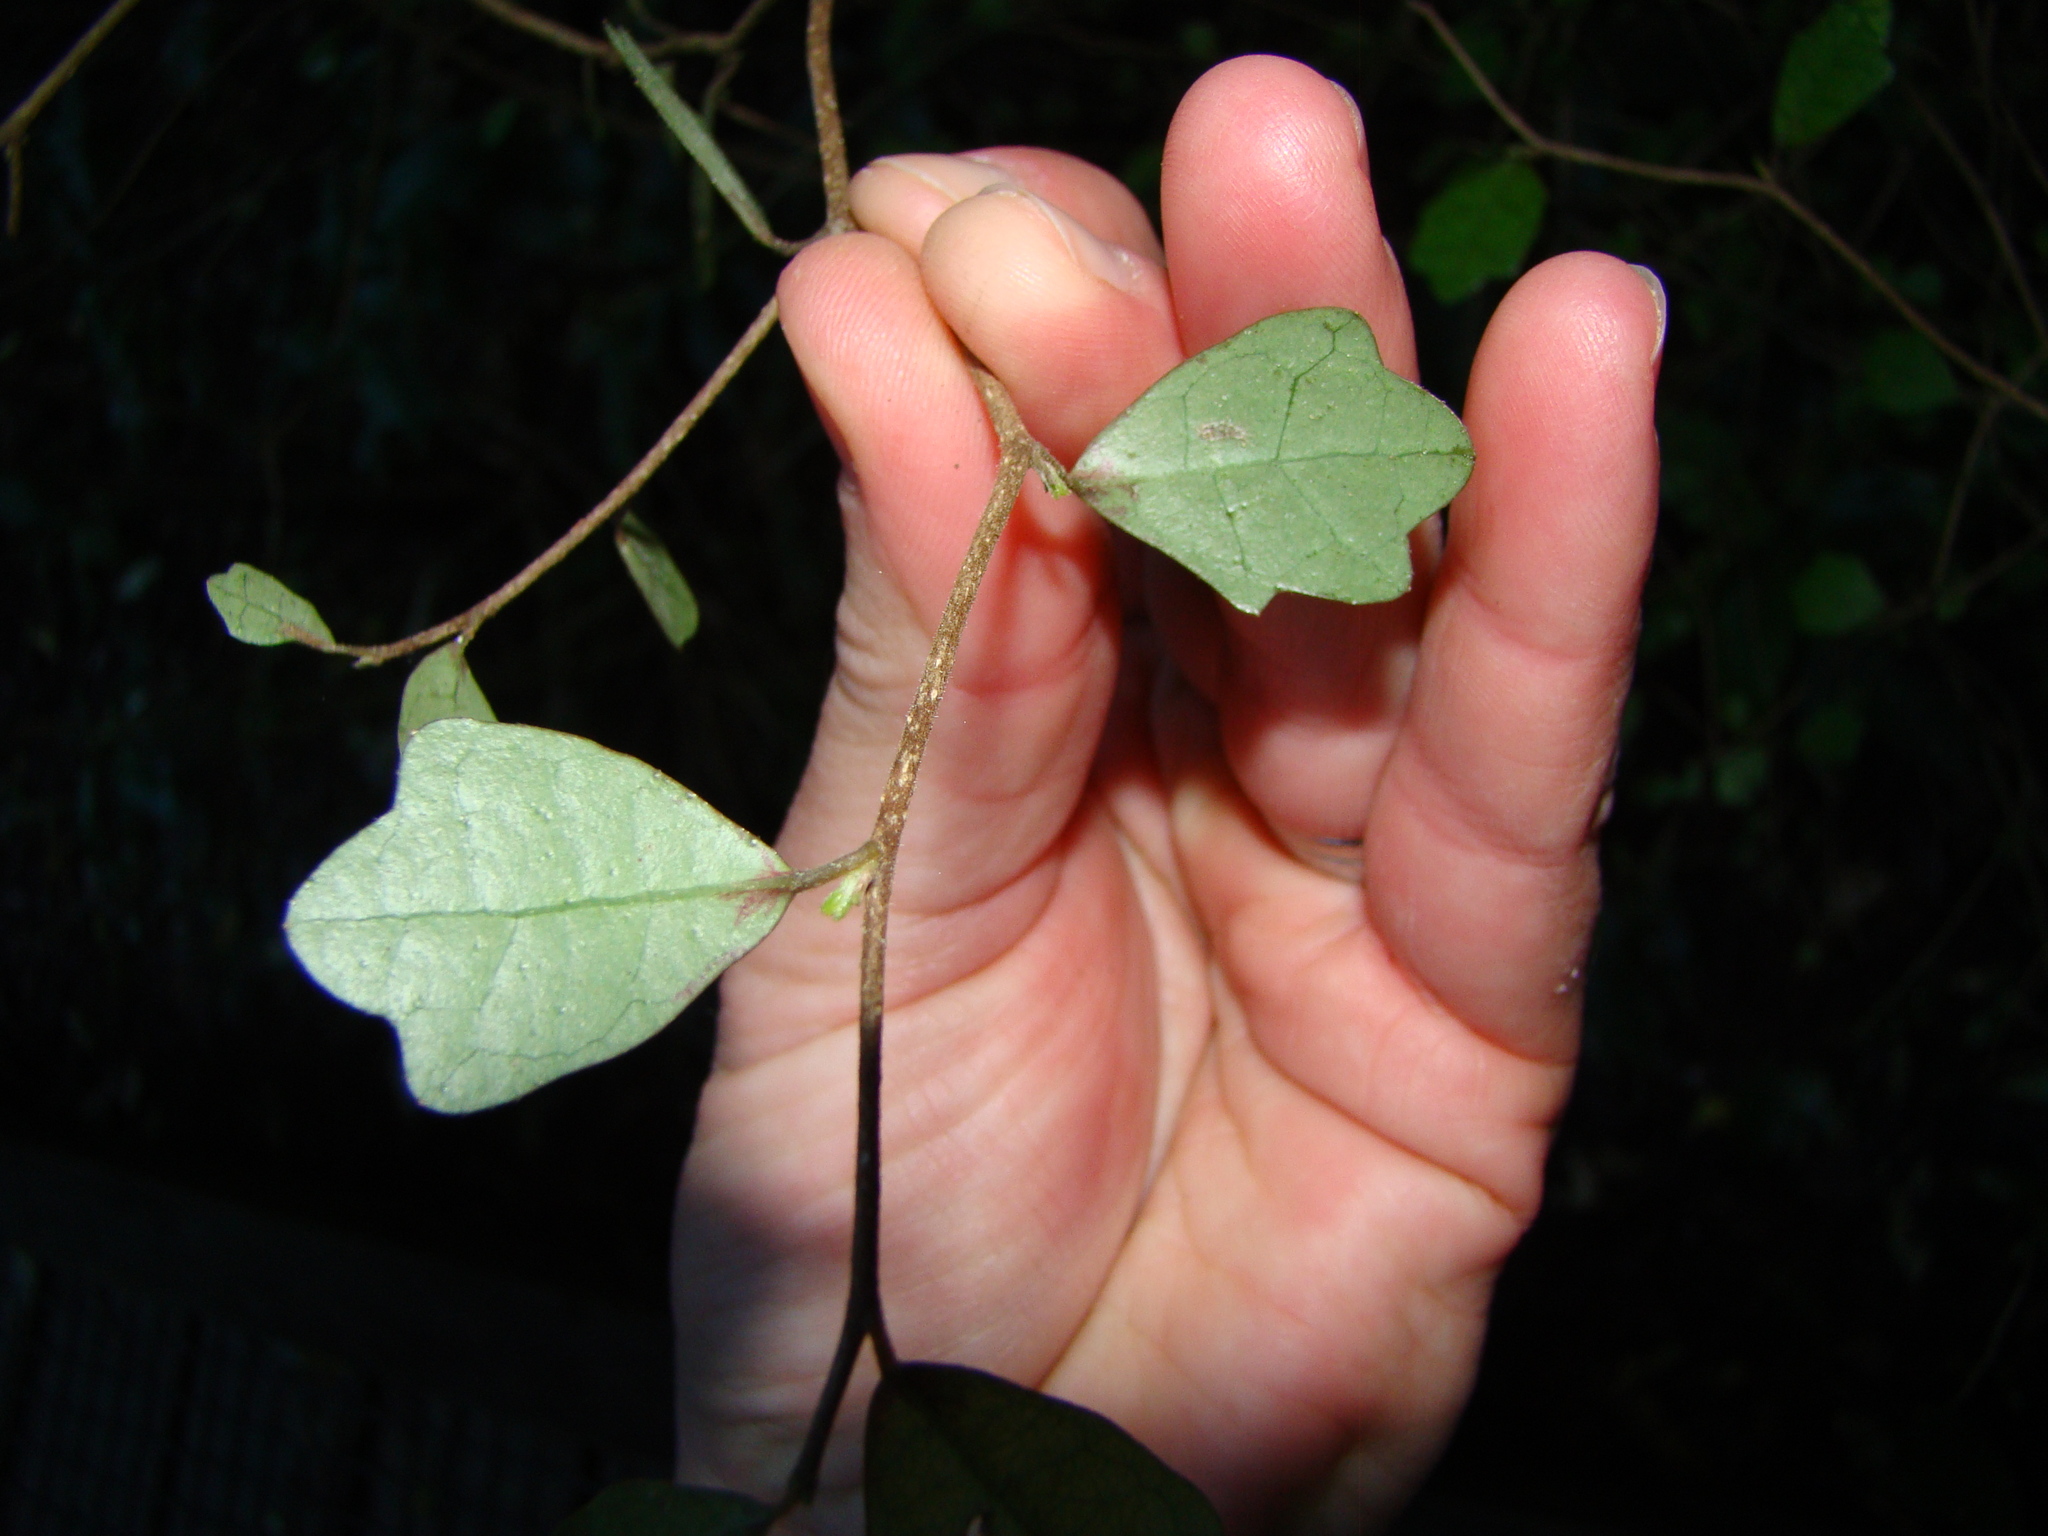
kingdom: Plantae
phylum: Tracheophyta
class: Magnoliopsida
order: Apiales
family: Pennantiaceae
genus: Pennantia
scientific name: Pennantia corymbosa
